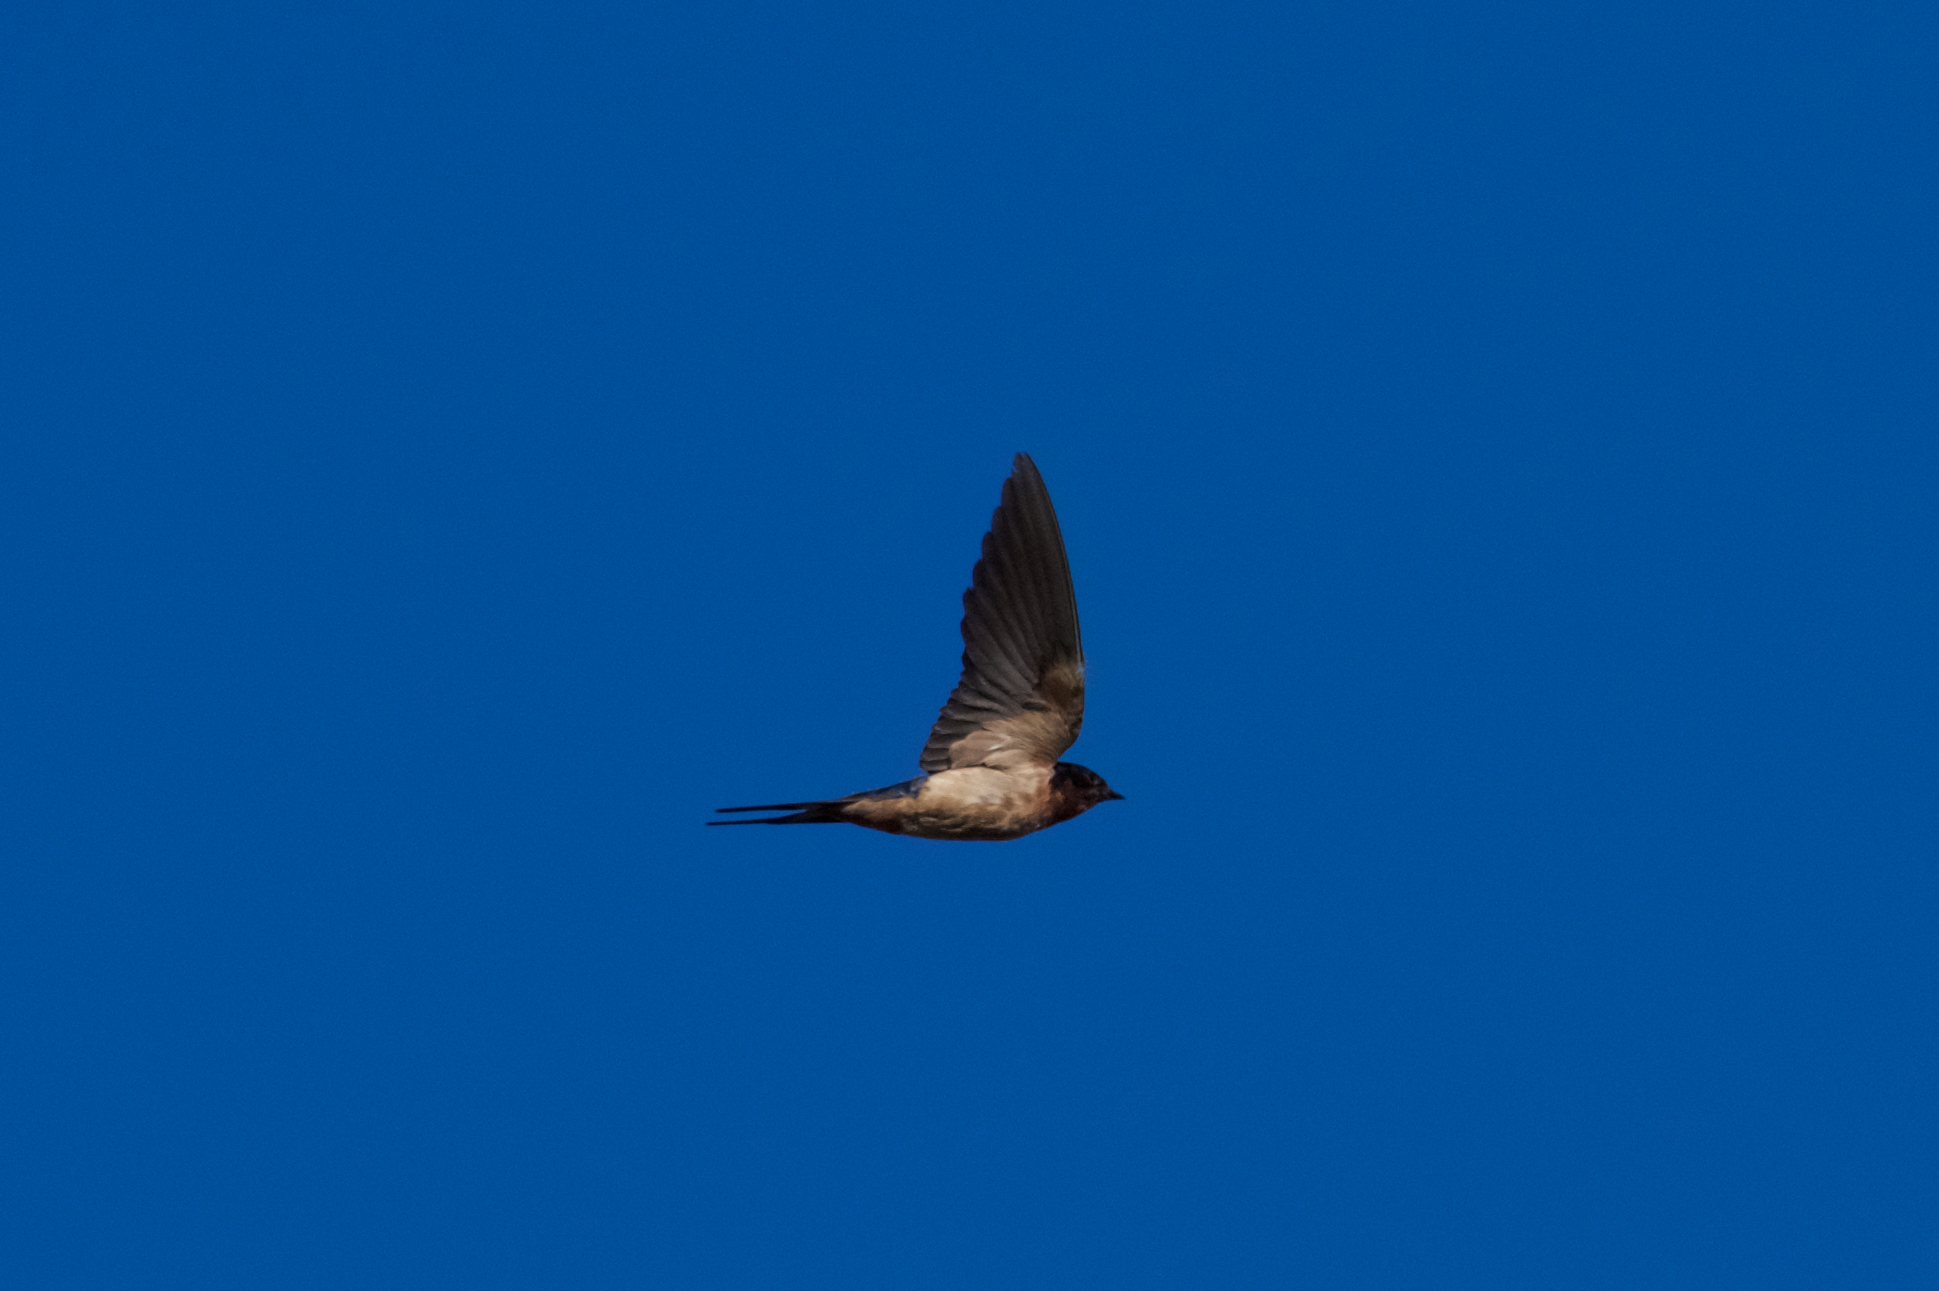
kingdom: Animalia
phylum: Chordata
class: Aves
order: Passeriformes
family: Hirundinidae
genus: Hirundo
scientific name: Hirundo rustica
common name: Barn swallow
